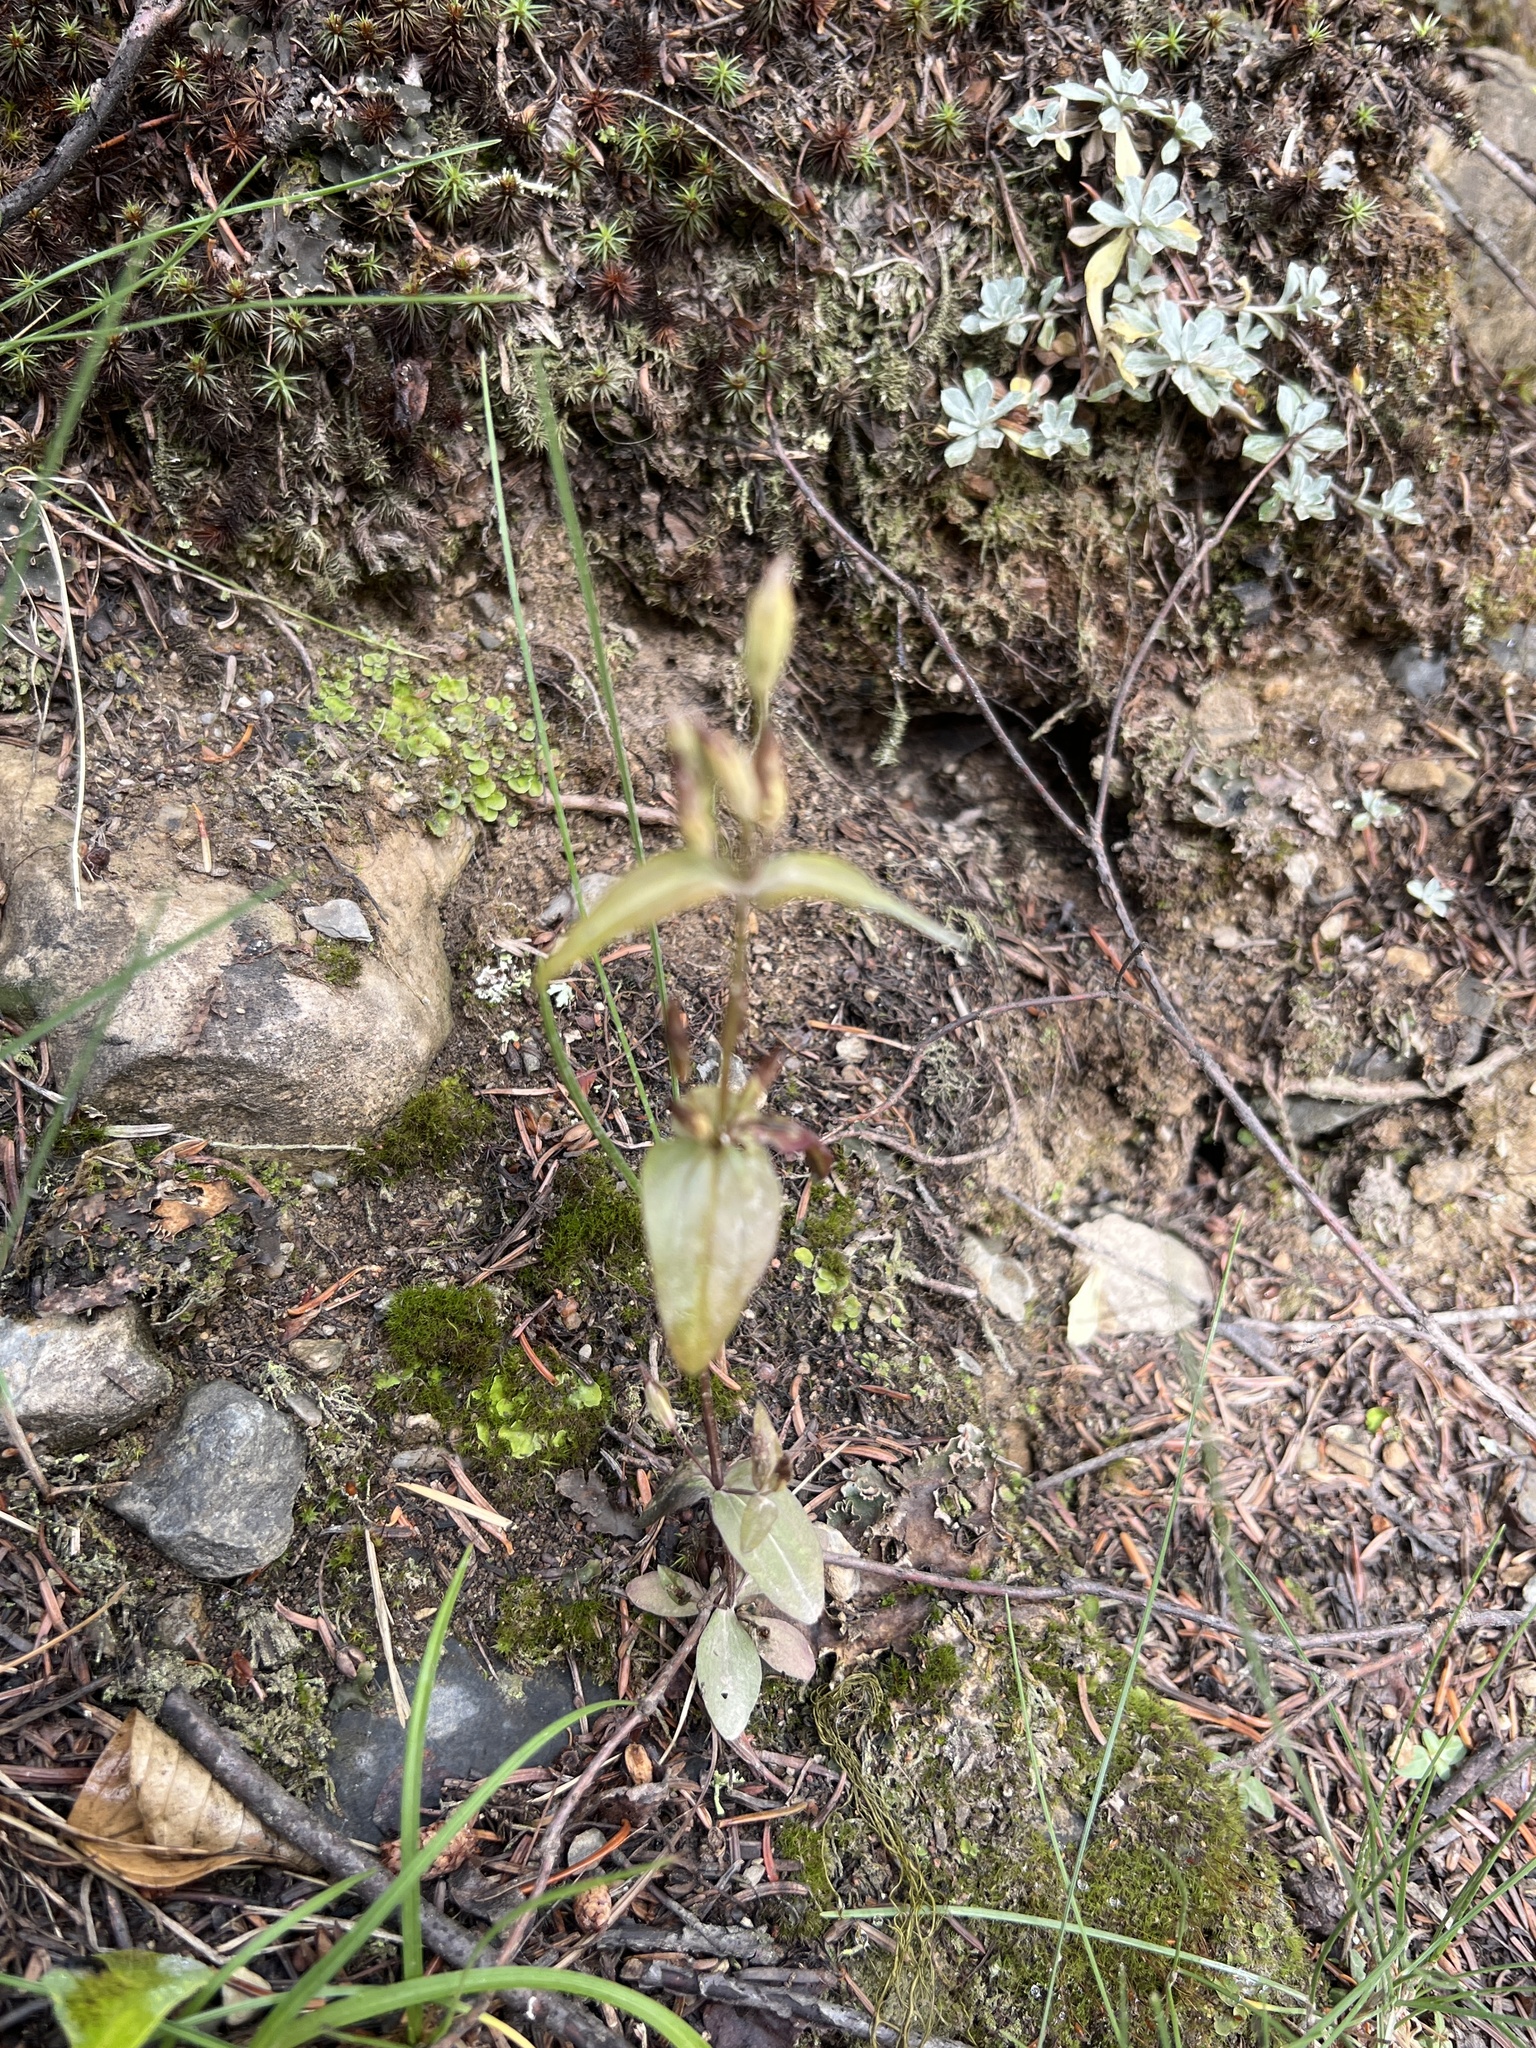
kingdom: Plantae
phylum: Tracheophyta
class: Magnoliopsida
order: Gentianales
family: Gentianaceae
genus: Gentianella
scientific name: Gentianella amarella
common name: Autumn gentian
